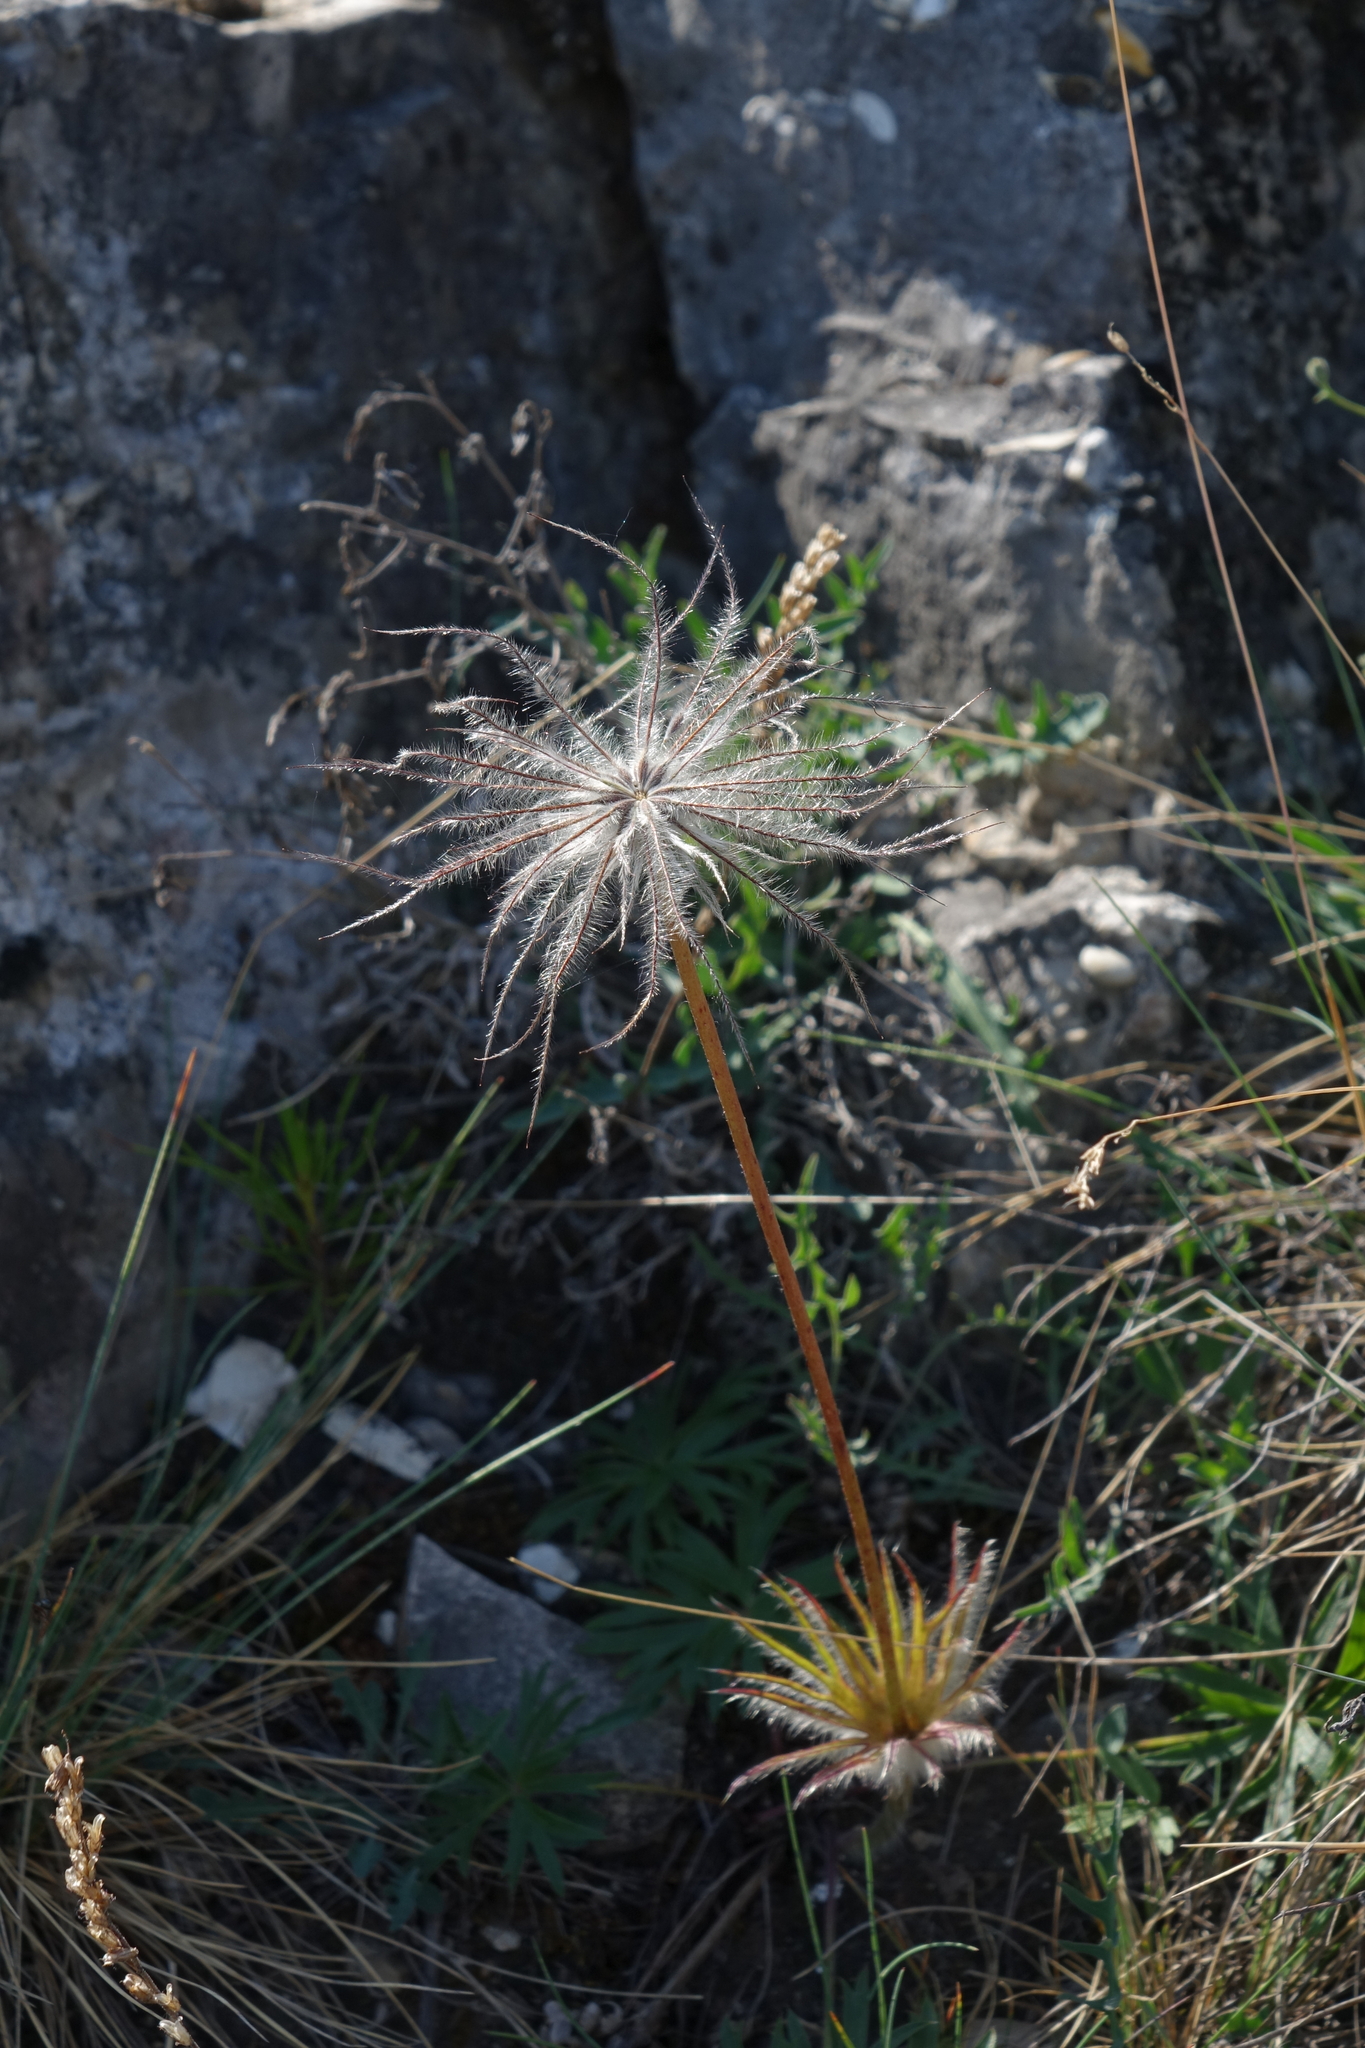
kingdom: Plantae
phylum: Tracheophyta
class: Magnoliopsida
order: Ranunculales
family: Ranunculaceae
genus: Pulsatilla
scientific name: Pulsatilla patens
